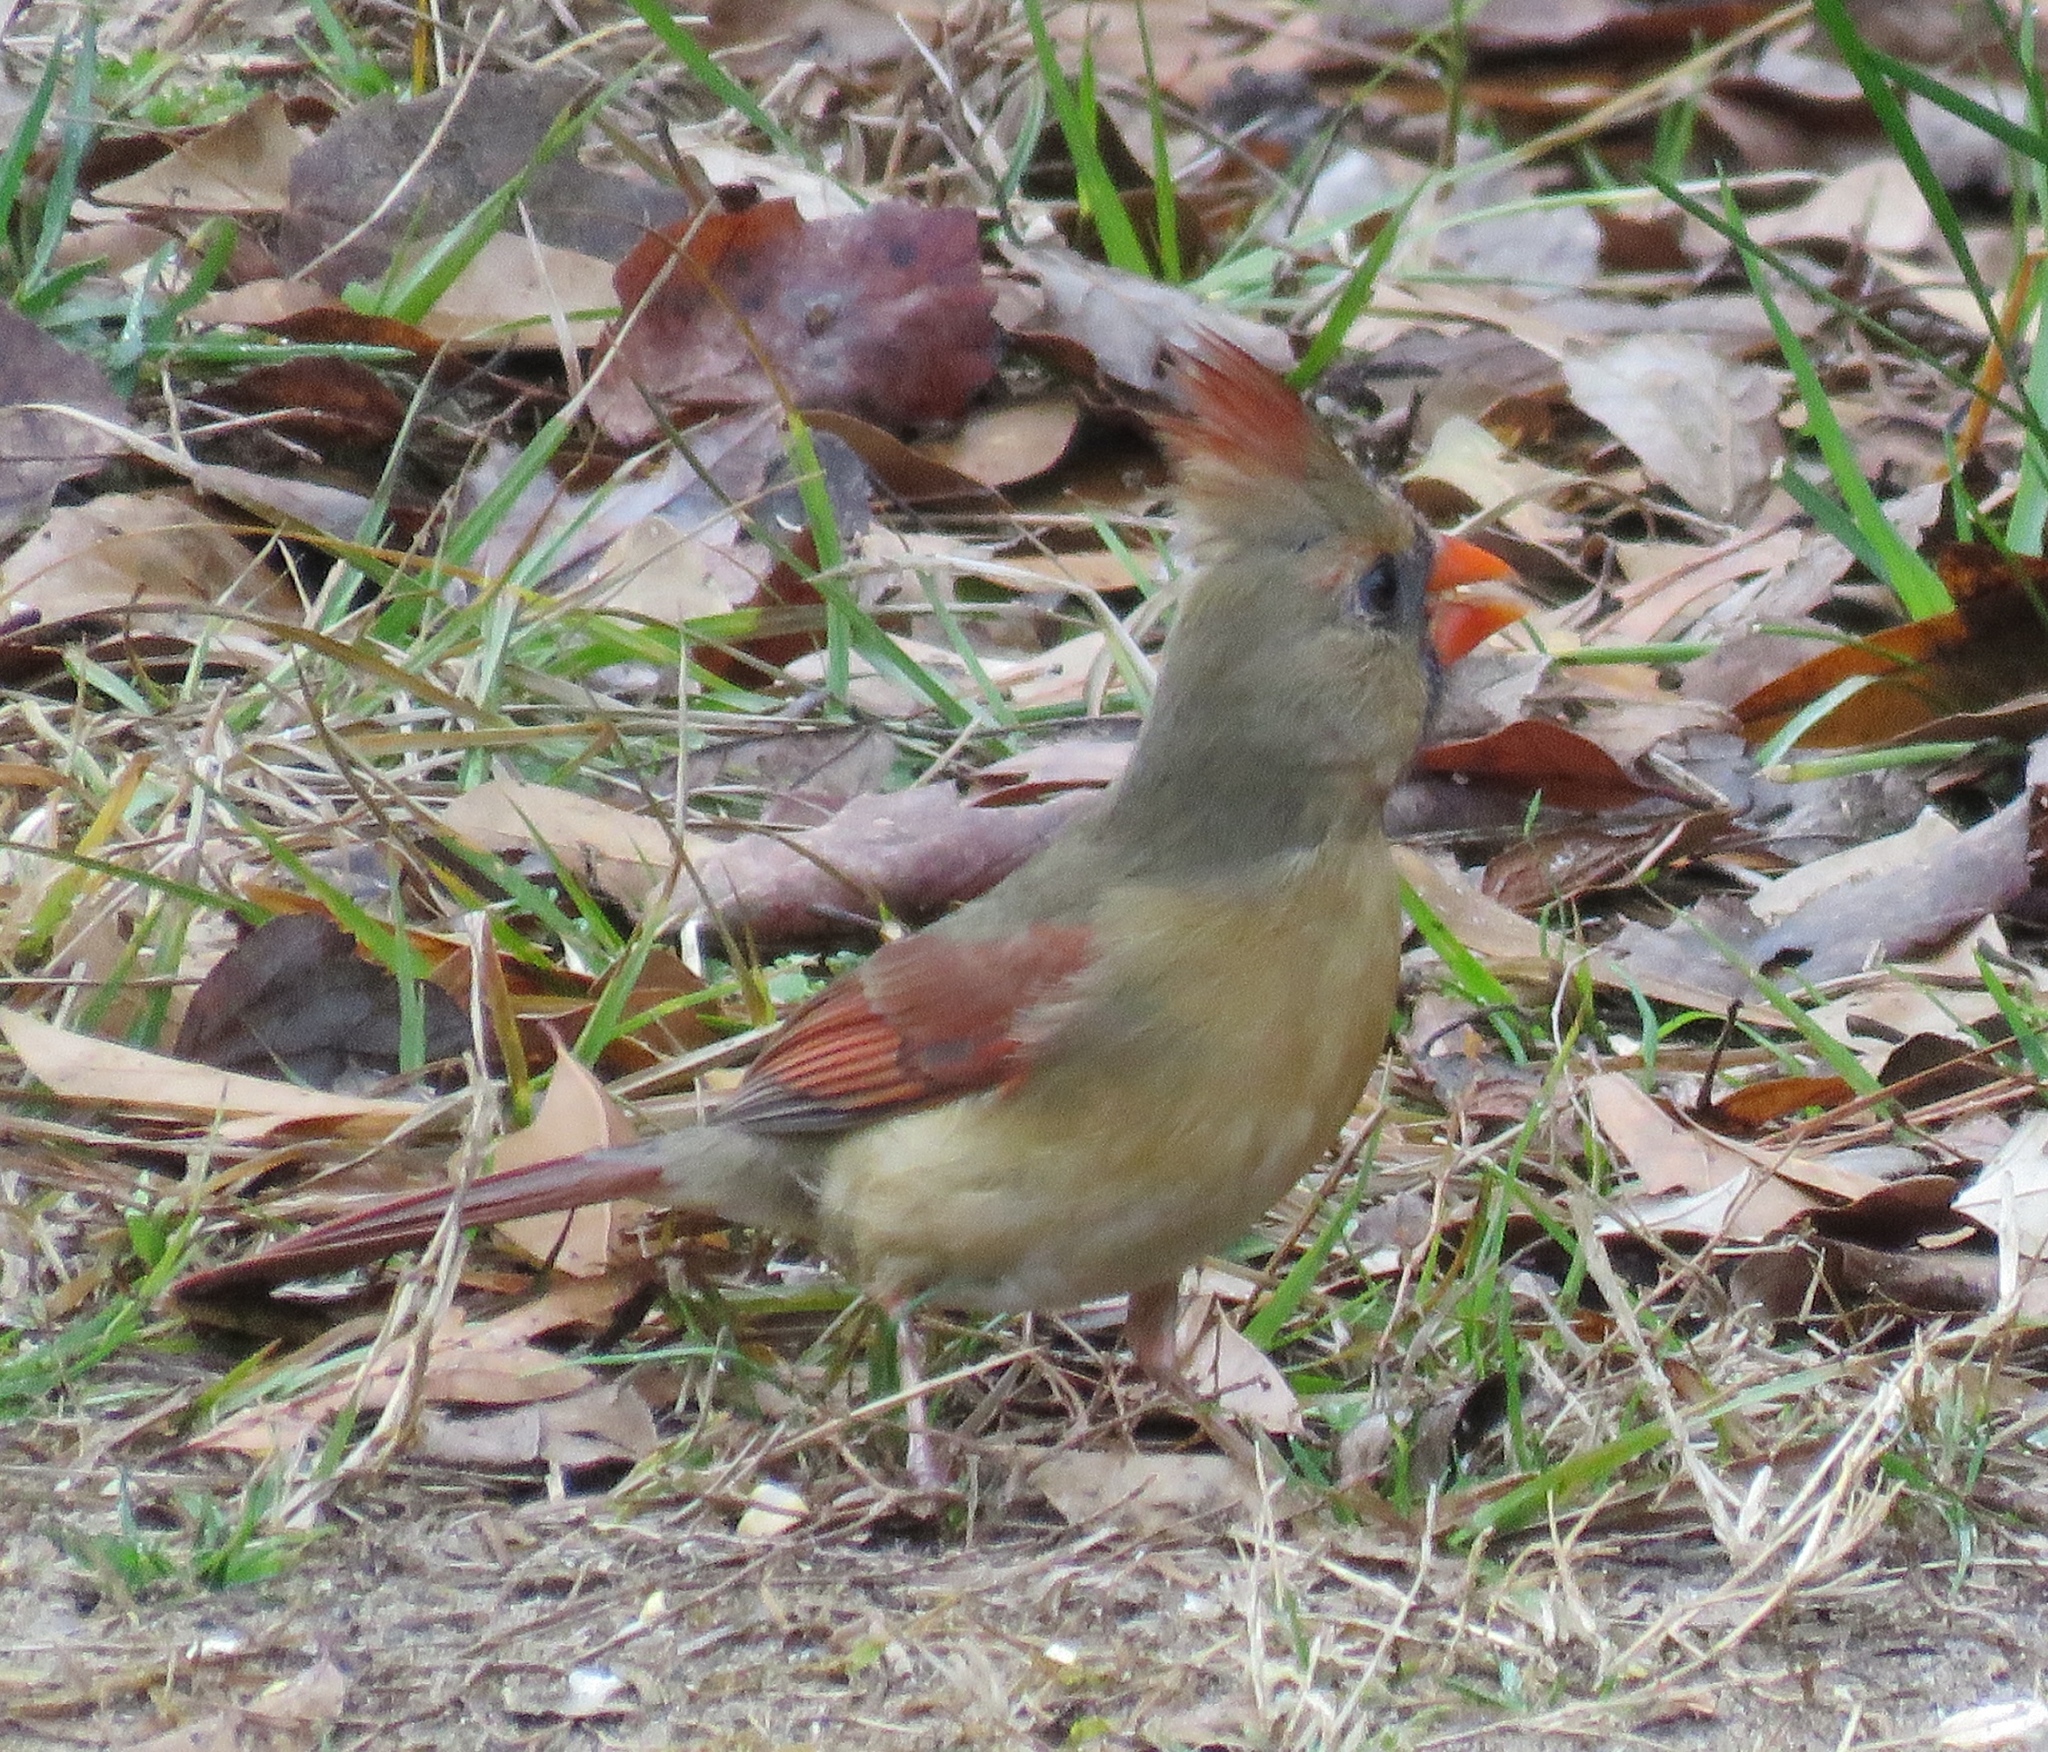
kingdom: Animalia
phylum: Chordata
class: Aves
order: Passeriformes
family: Cardinalidae
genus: Cardinalis
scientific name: Cardinalis cardinalis
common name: Northern cardinal
